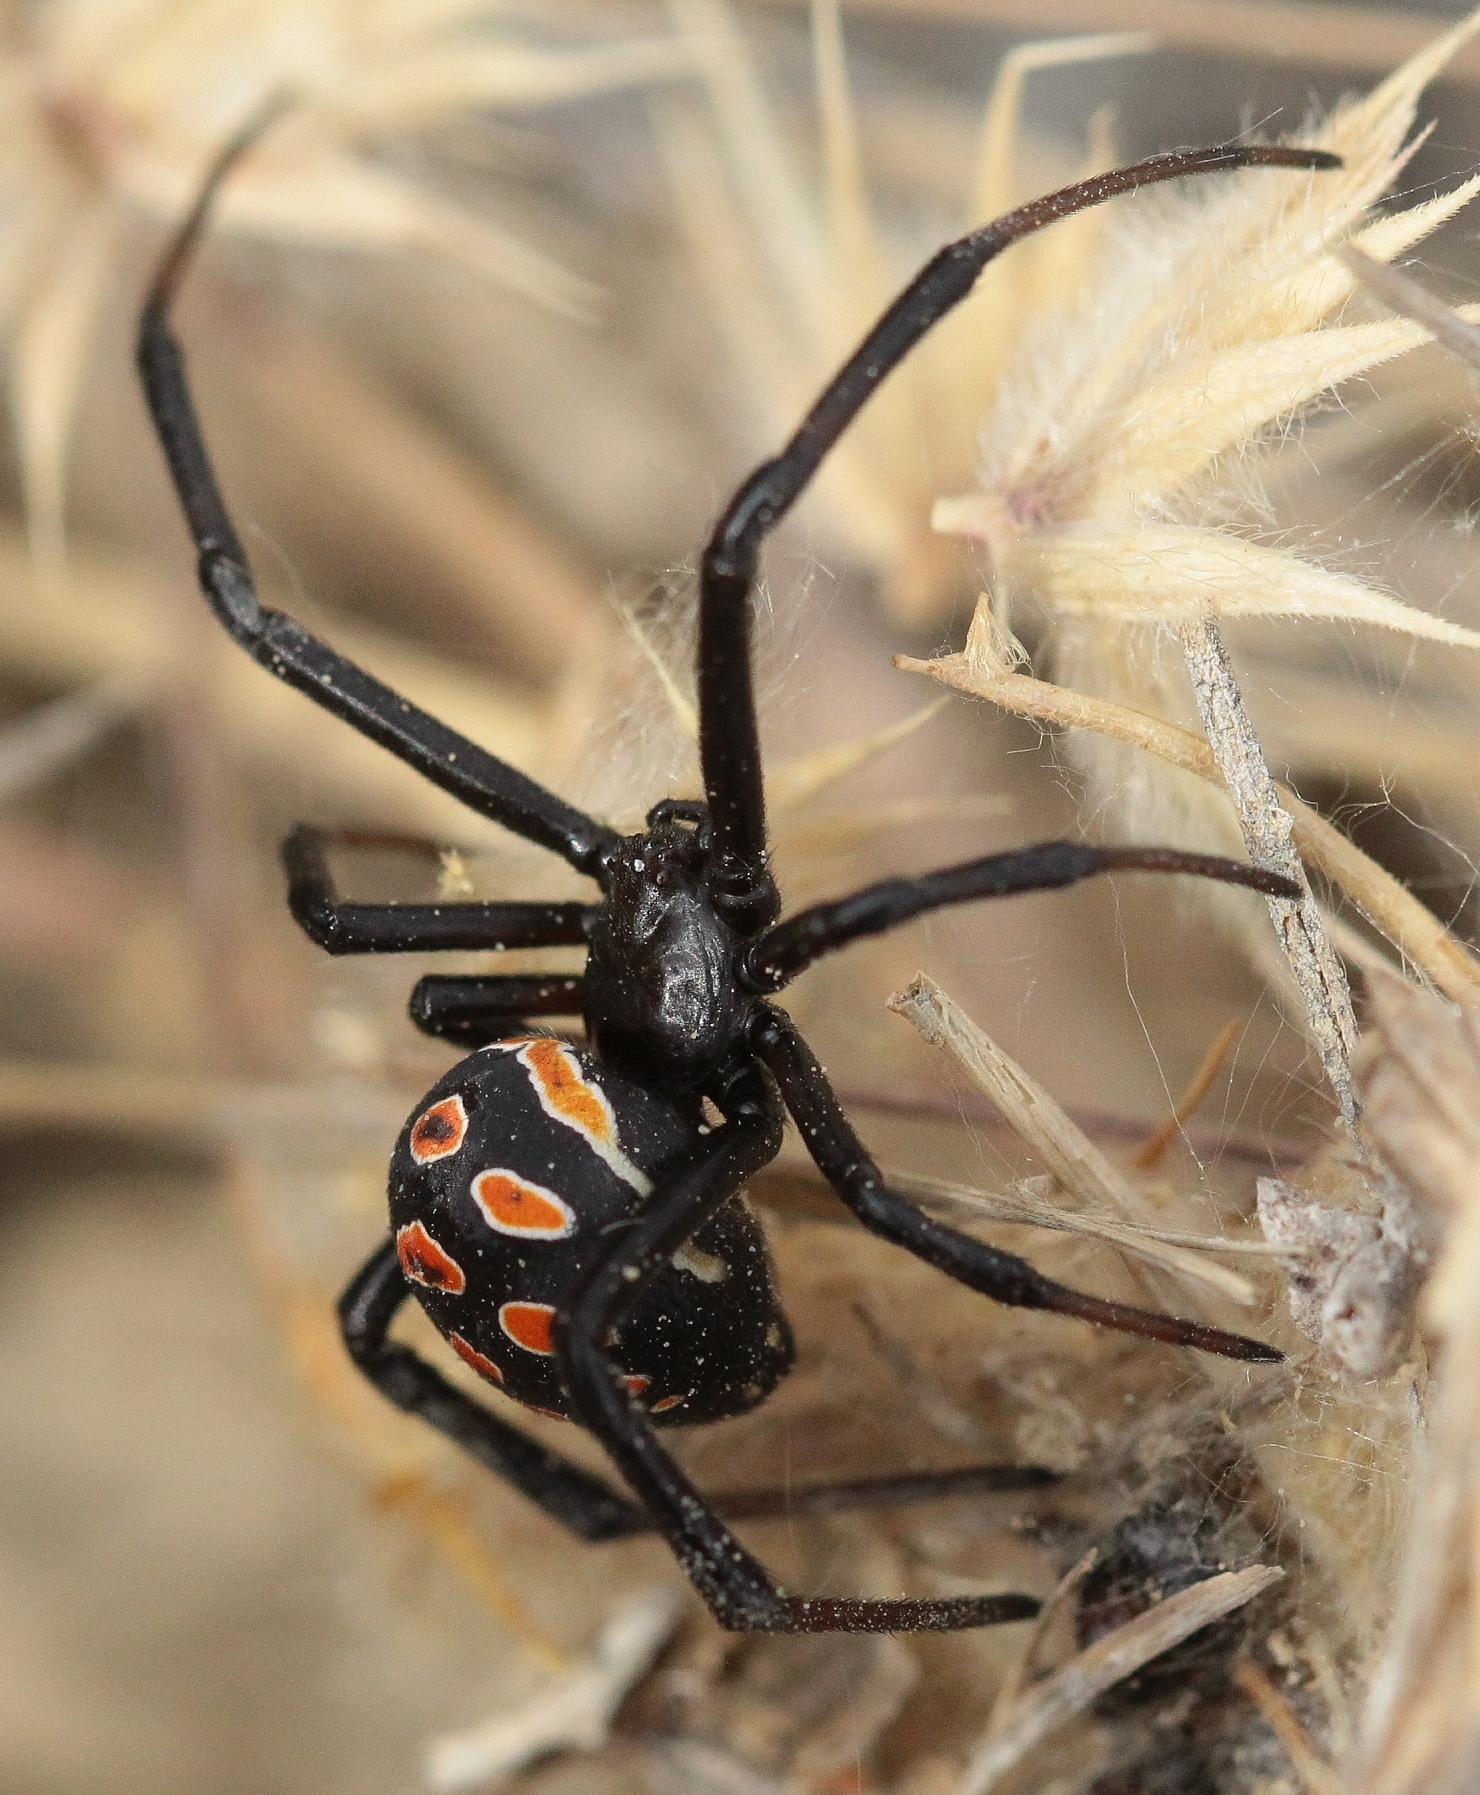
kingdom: Animalia
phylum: Arthropoda
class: Arachnida
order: Araneae
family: Theridiidae
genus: Latrodectus
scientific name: Latrodectus tredecimguttatus
